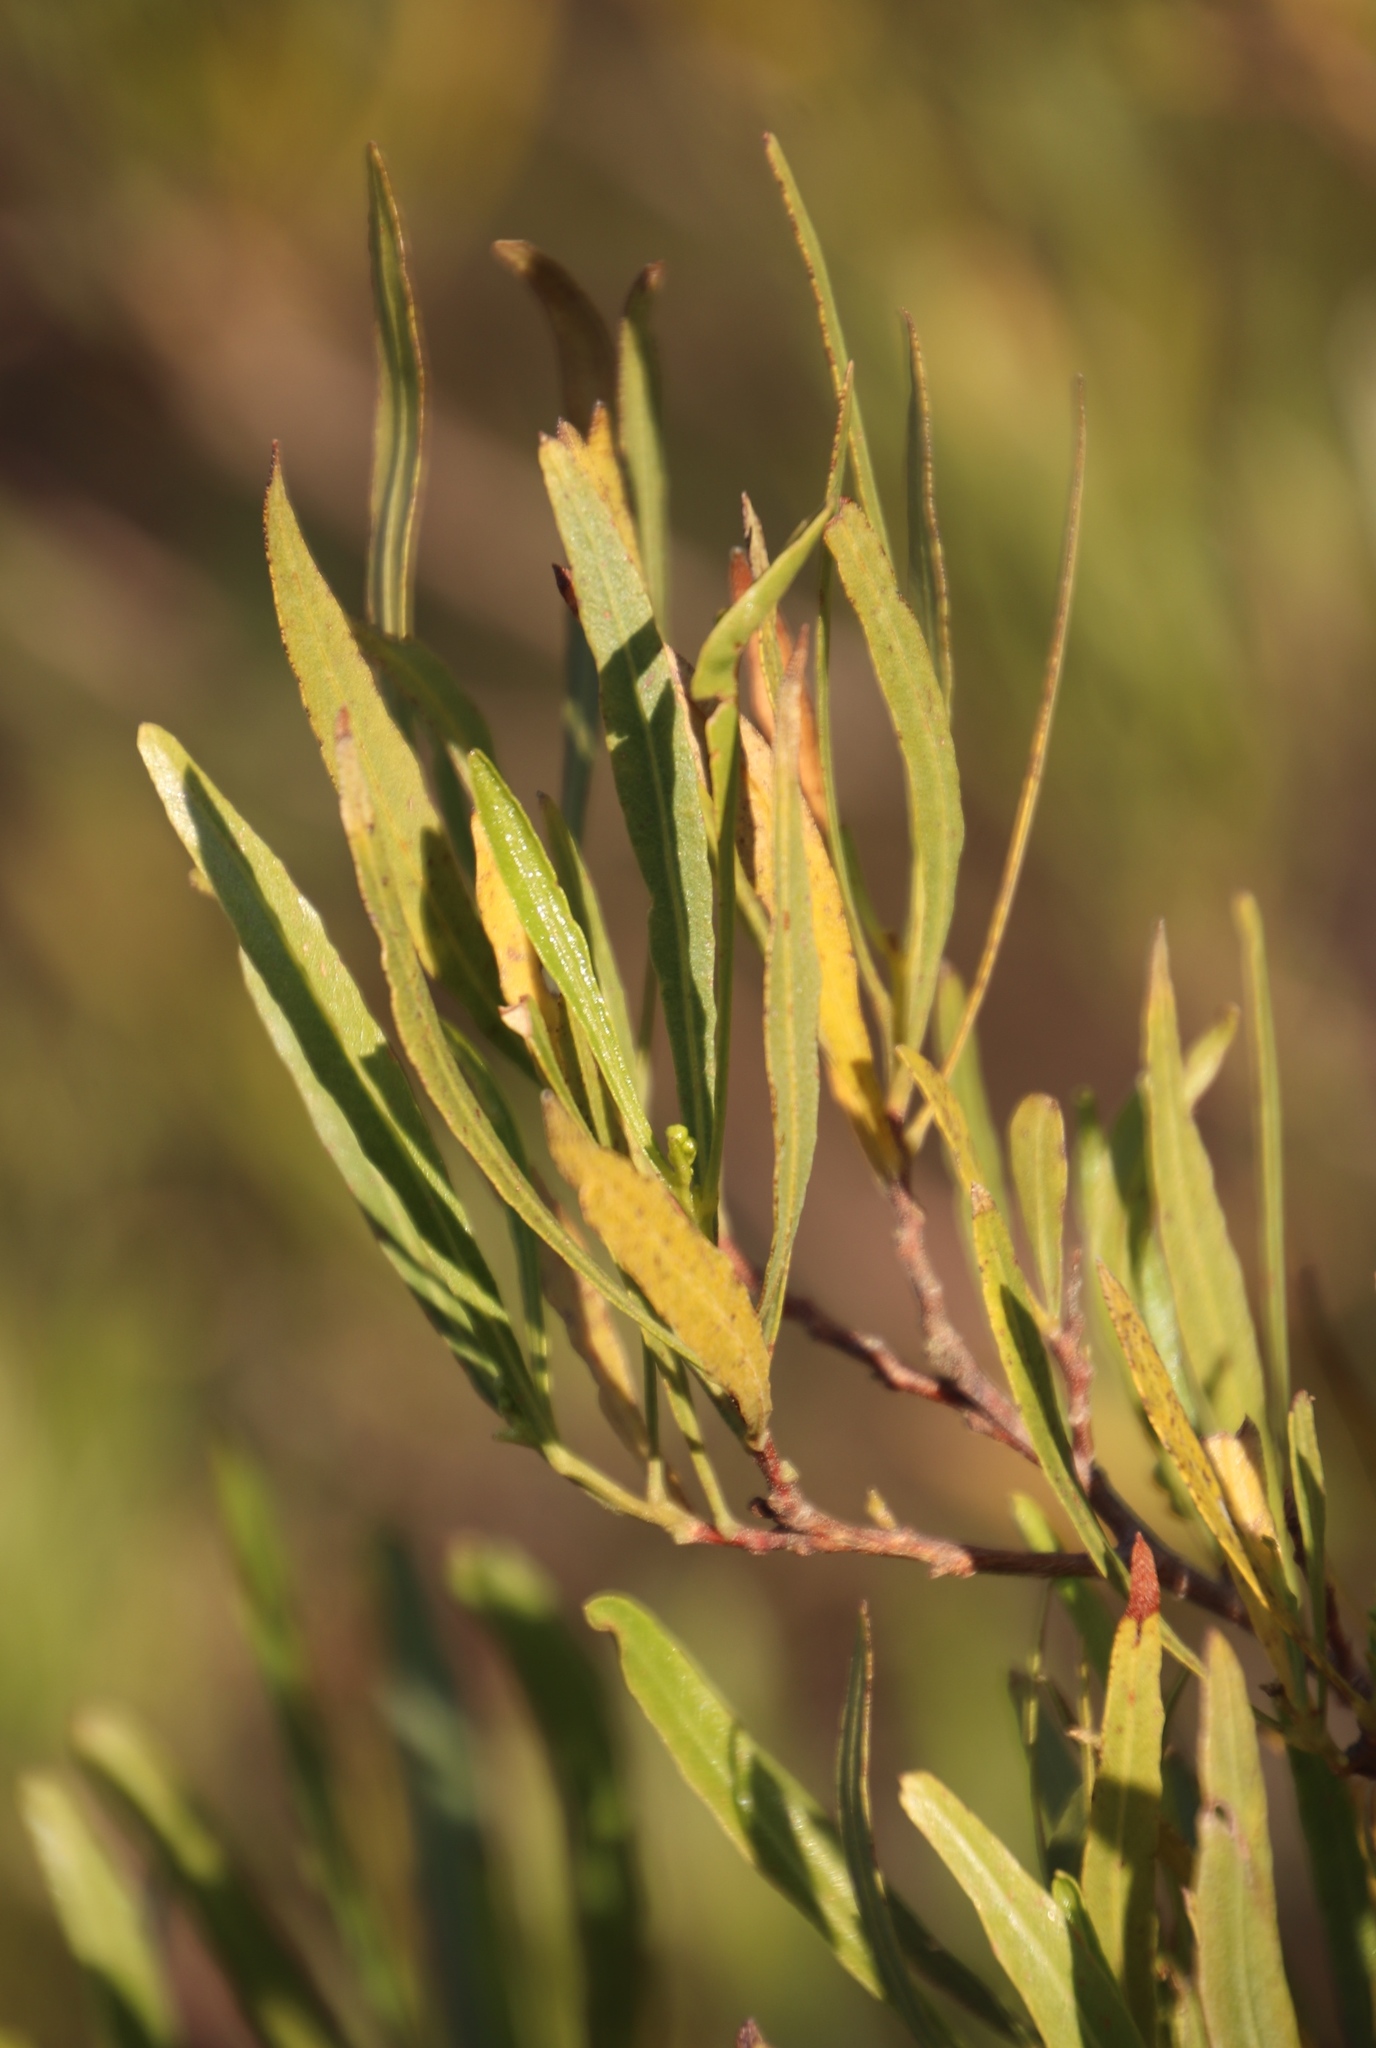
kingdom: Plantae
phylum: Tracheophyta
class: Magnoliopsida
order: Sapindales
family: Sapindaceae
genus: Dodonaea
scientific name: Dodonaea viscosa
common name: Hopbush
